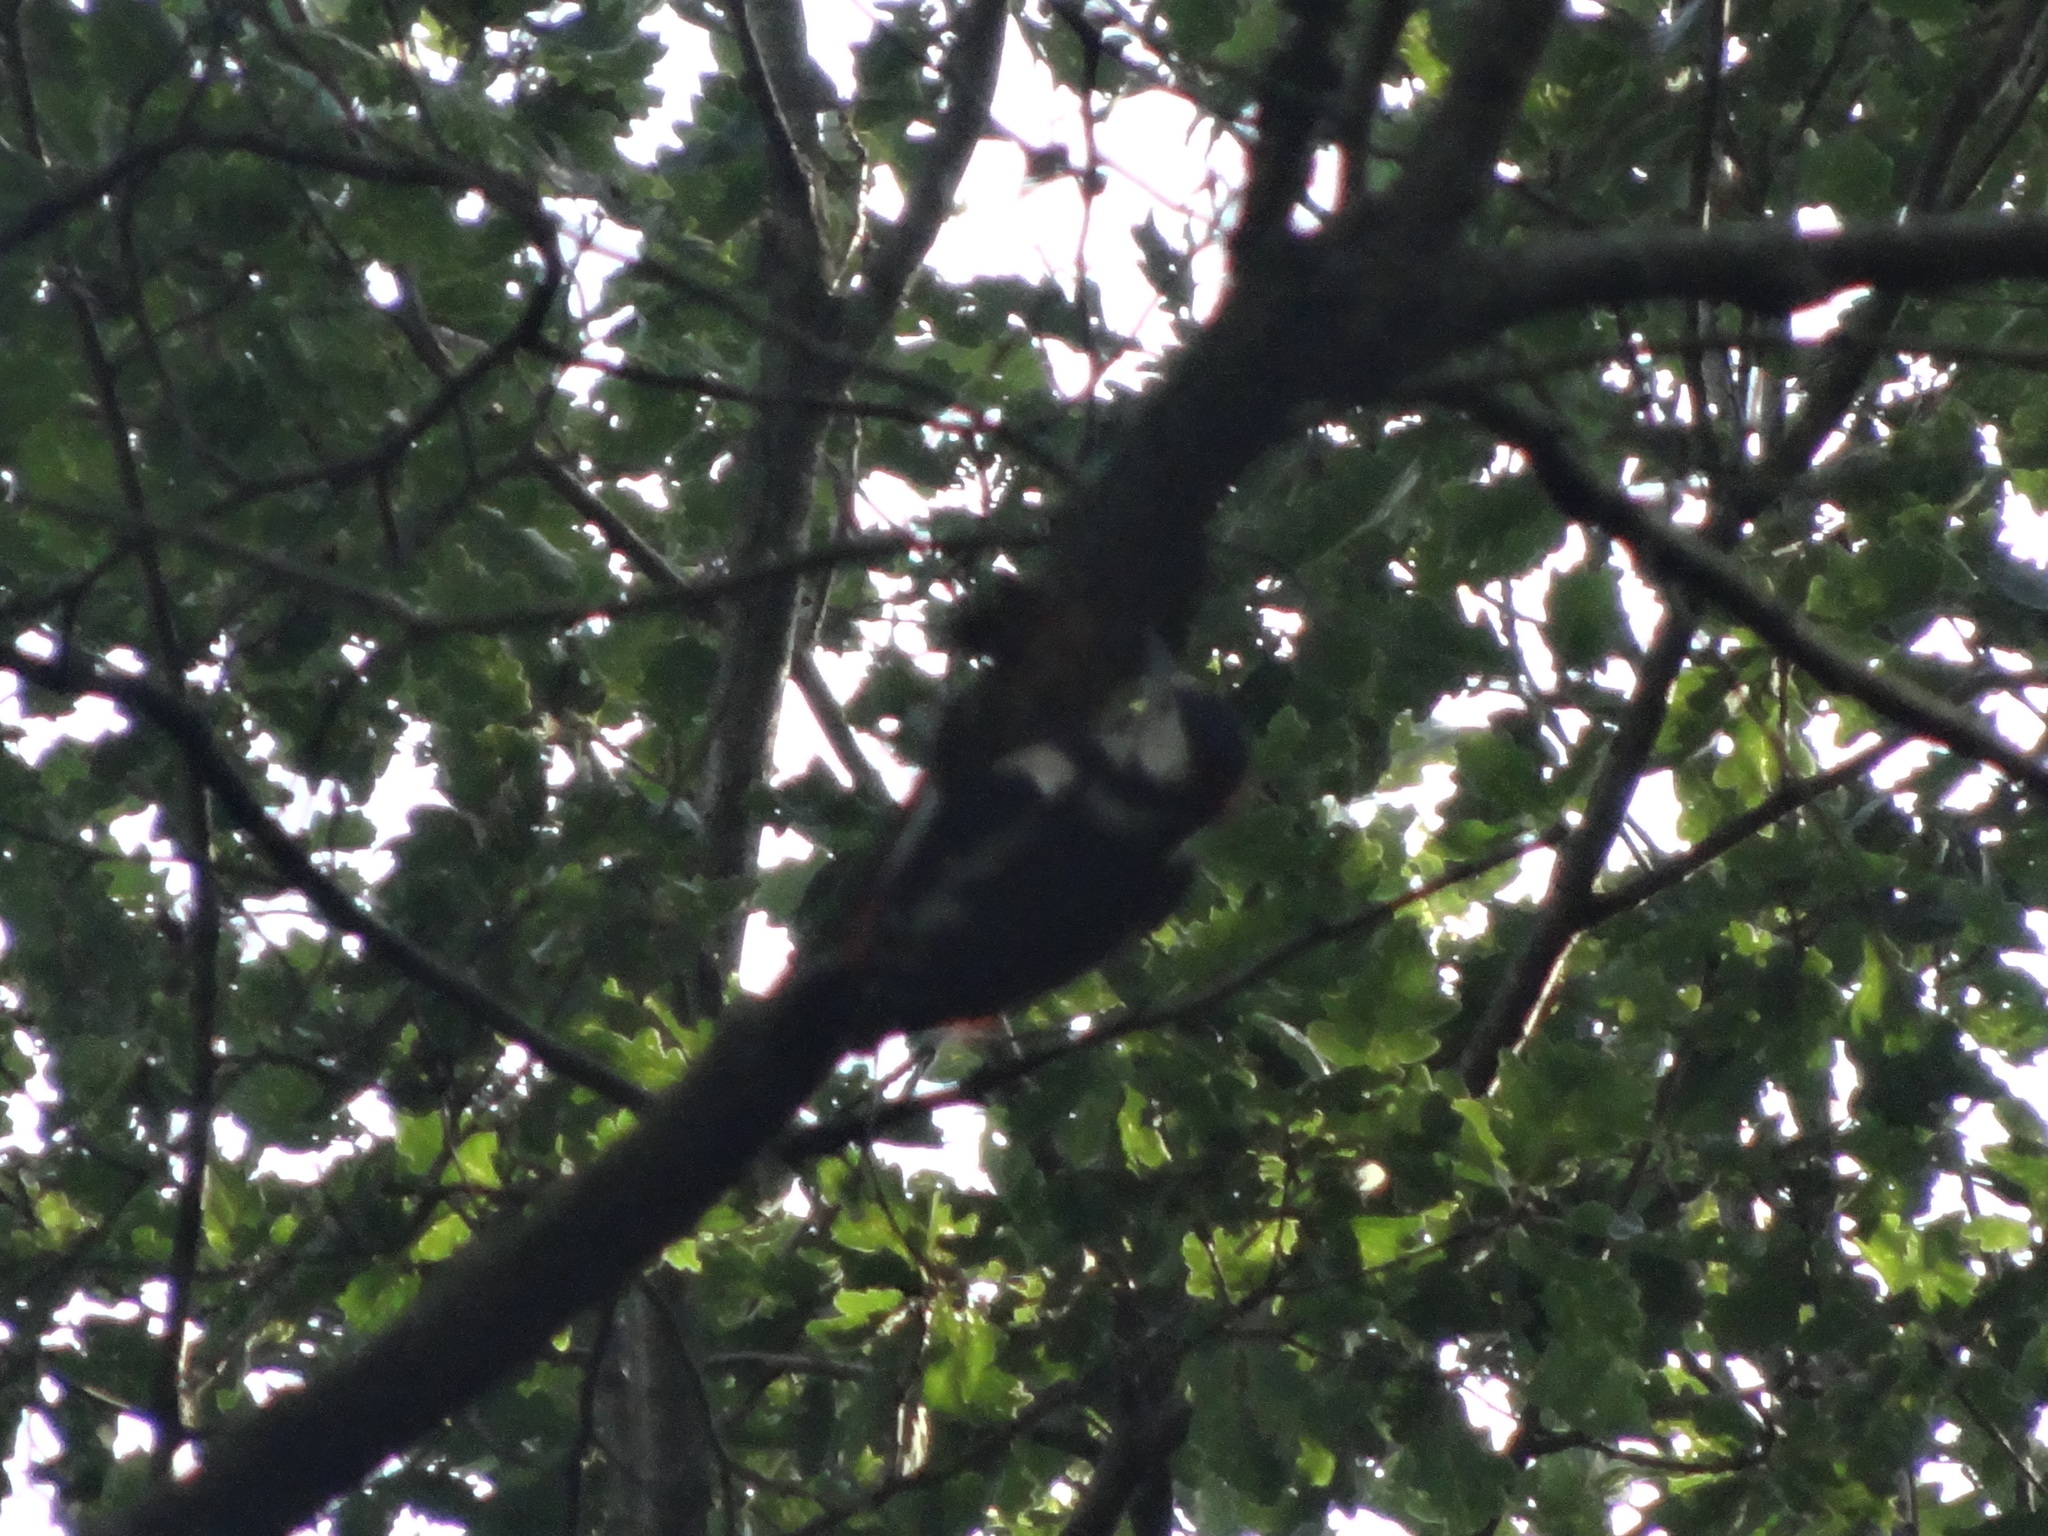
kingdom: Animalia
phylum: Chordata
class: Aves
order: Piciformes
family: Picidae
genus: Dendrocopos
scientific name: Dendrocopos major
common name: Great spotted woodpecker
